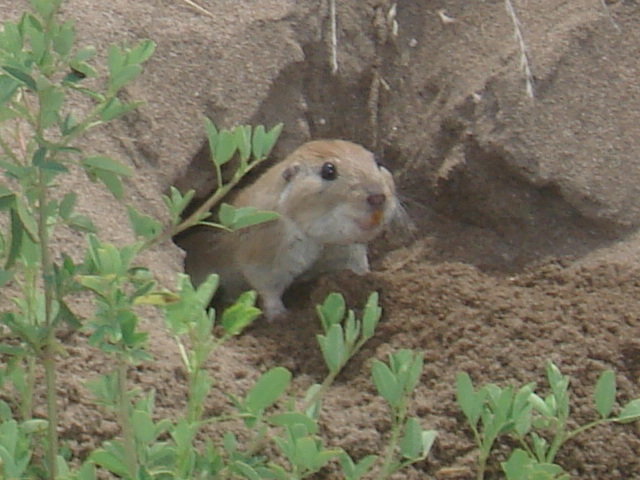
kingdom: Animalia
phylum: Chordata
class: Mammalia
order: Rodentia
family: Ctenomyidae
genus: Ctenomys
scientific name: Ctenomys australis
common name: Southern tuco-tuco
